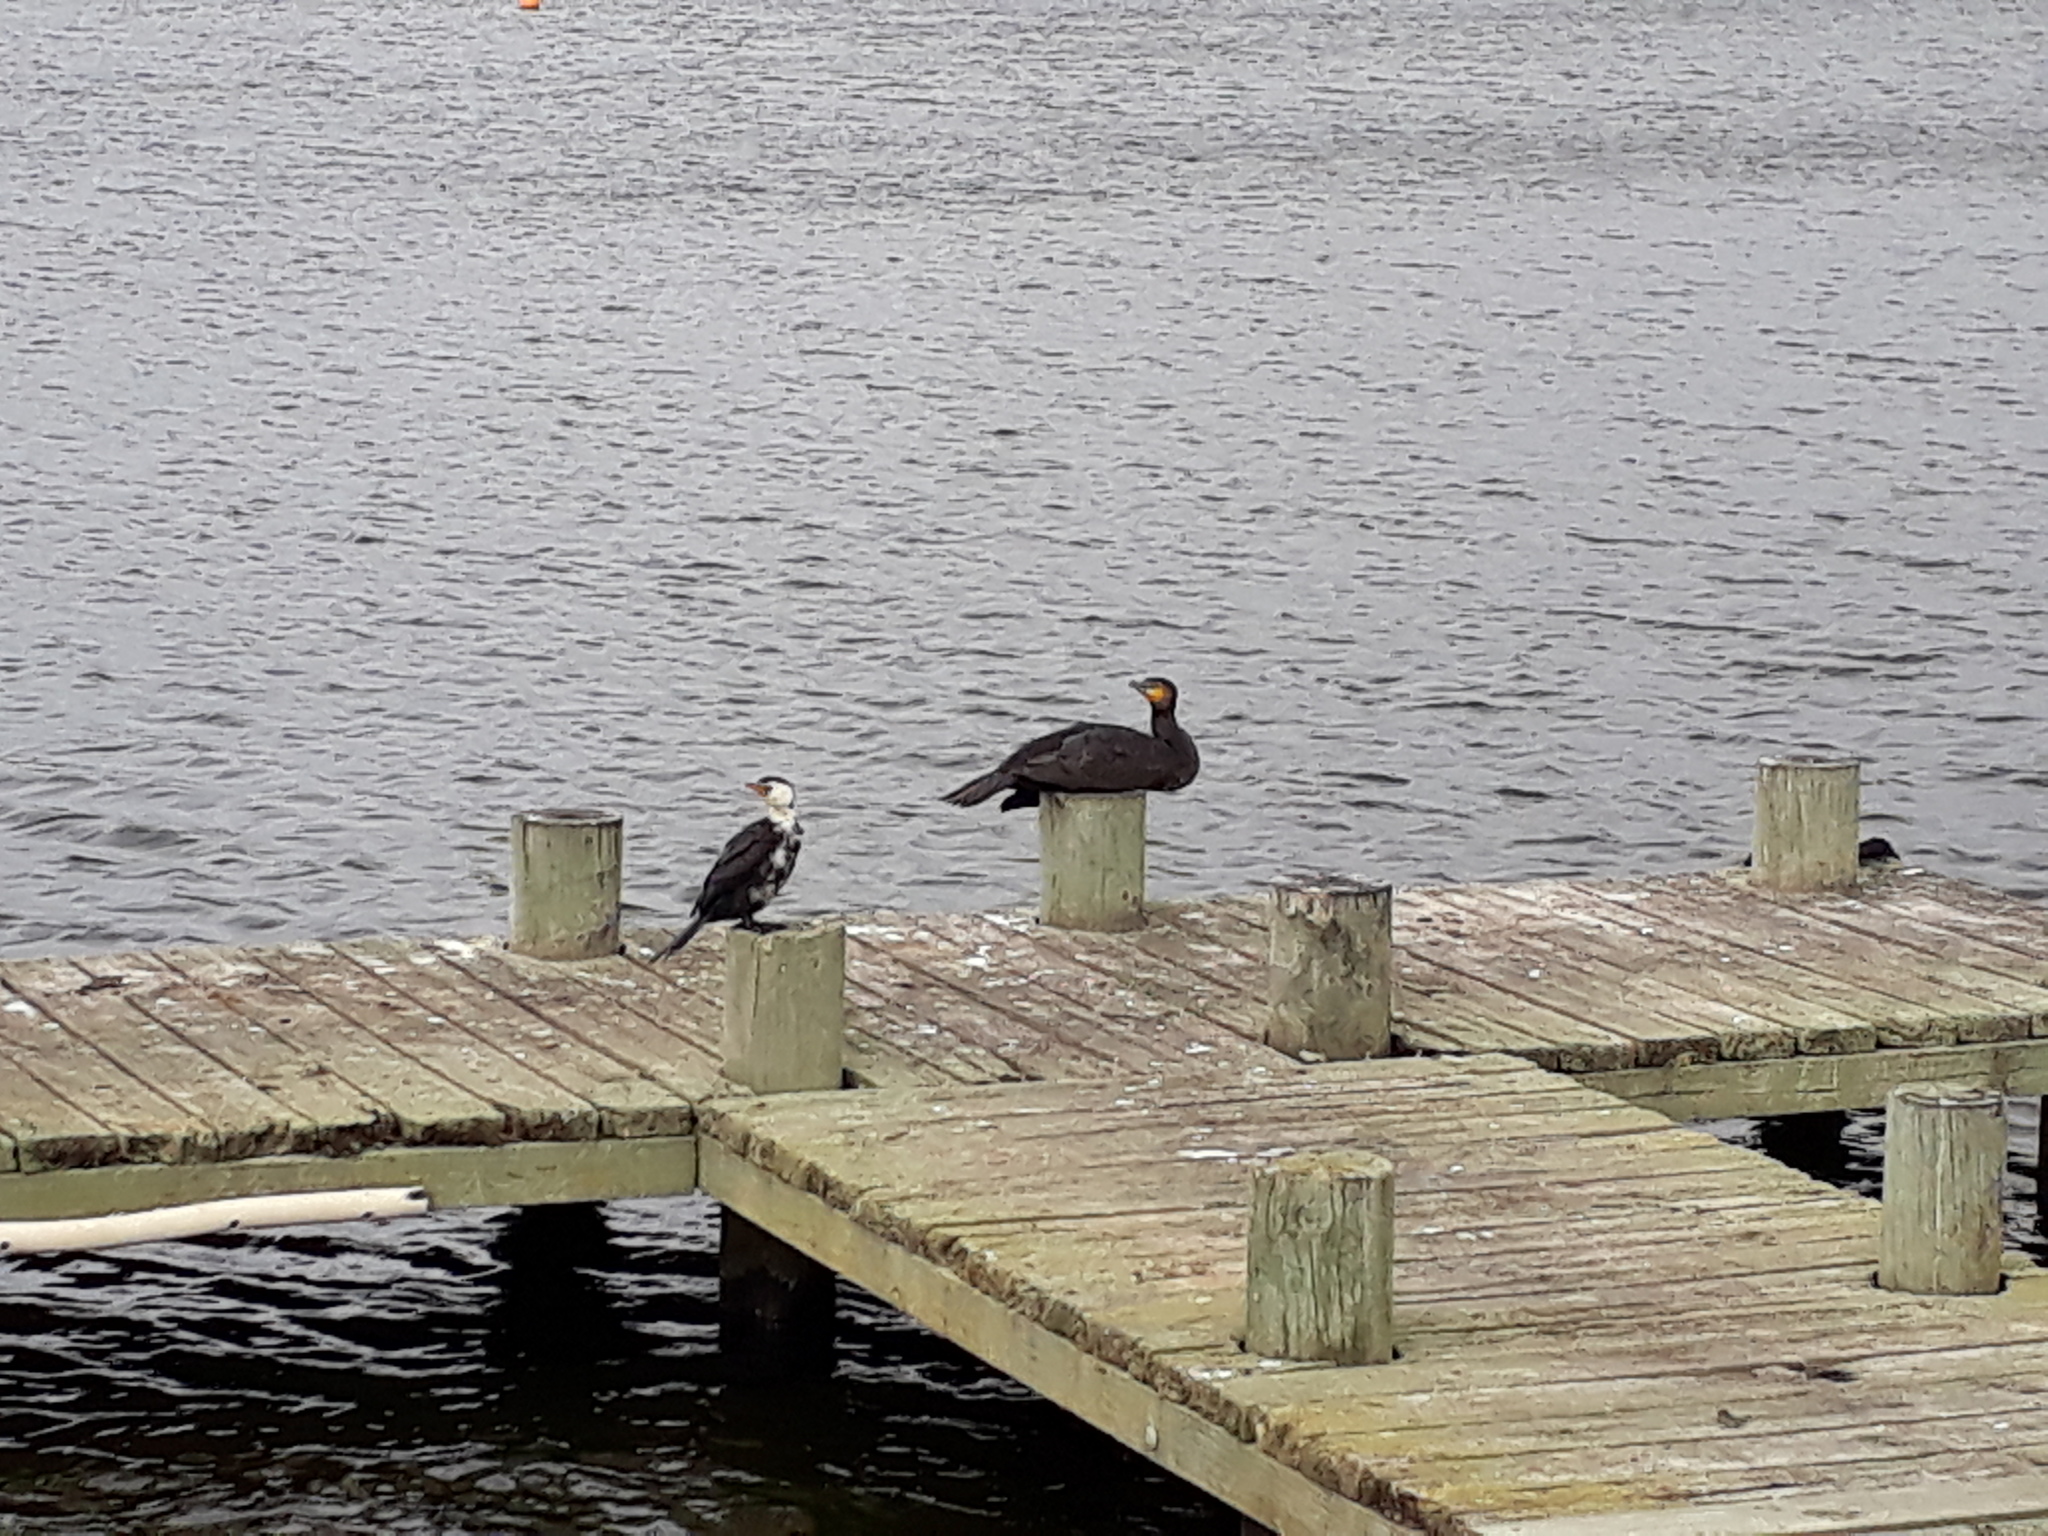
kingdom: Animalia
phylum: Chordata
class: Aves
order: Suliformes
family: Phalacrocoracidae
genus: Phalacrocorax
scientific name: Phalacrocorax carbo
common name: Great cormorant
